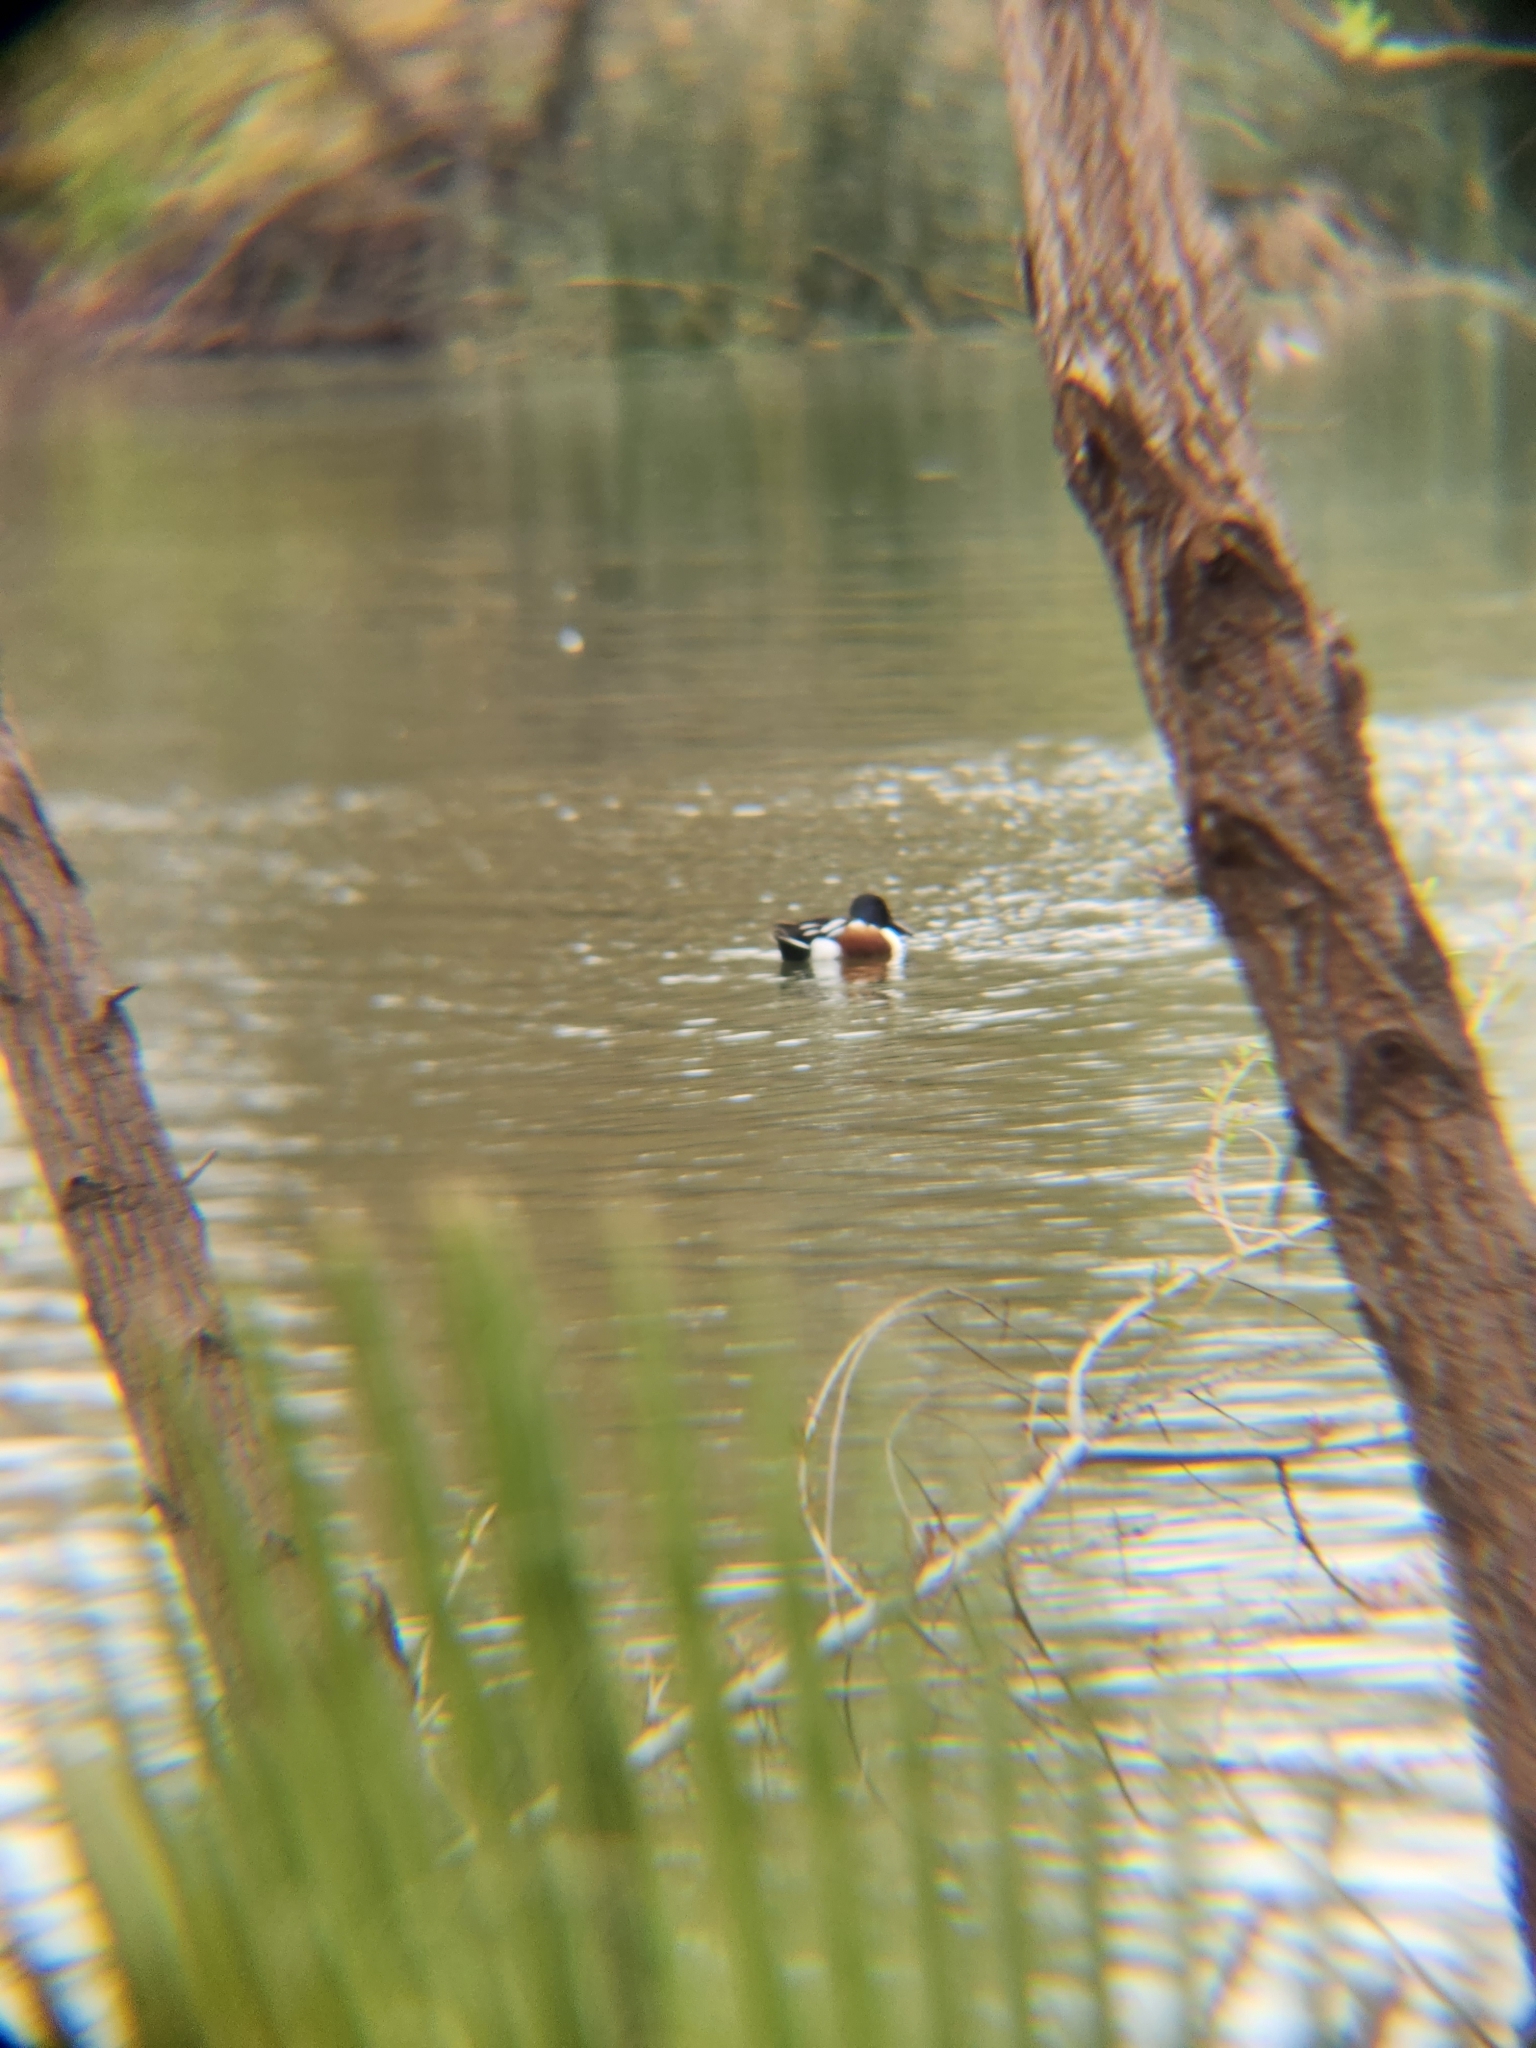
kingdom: Animalia
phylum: Chordata
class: Aves
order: Anseriformes
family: Anatidae
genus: Spatula
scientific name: Spatula clypeata
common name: Northern shoveler
